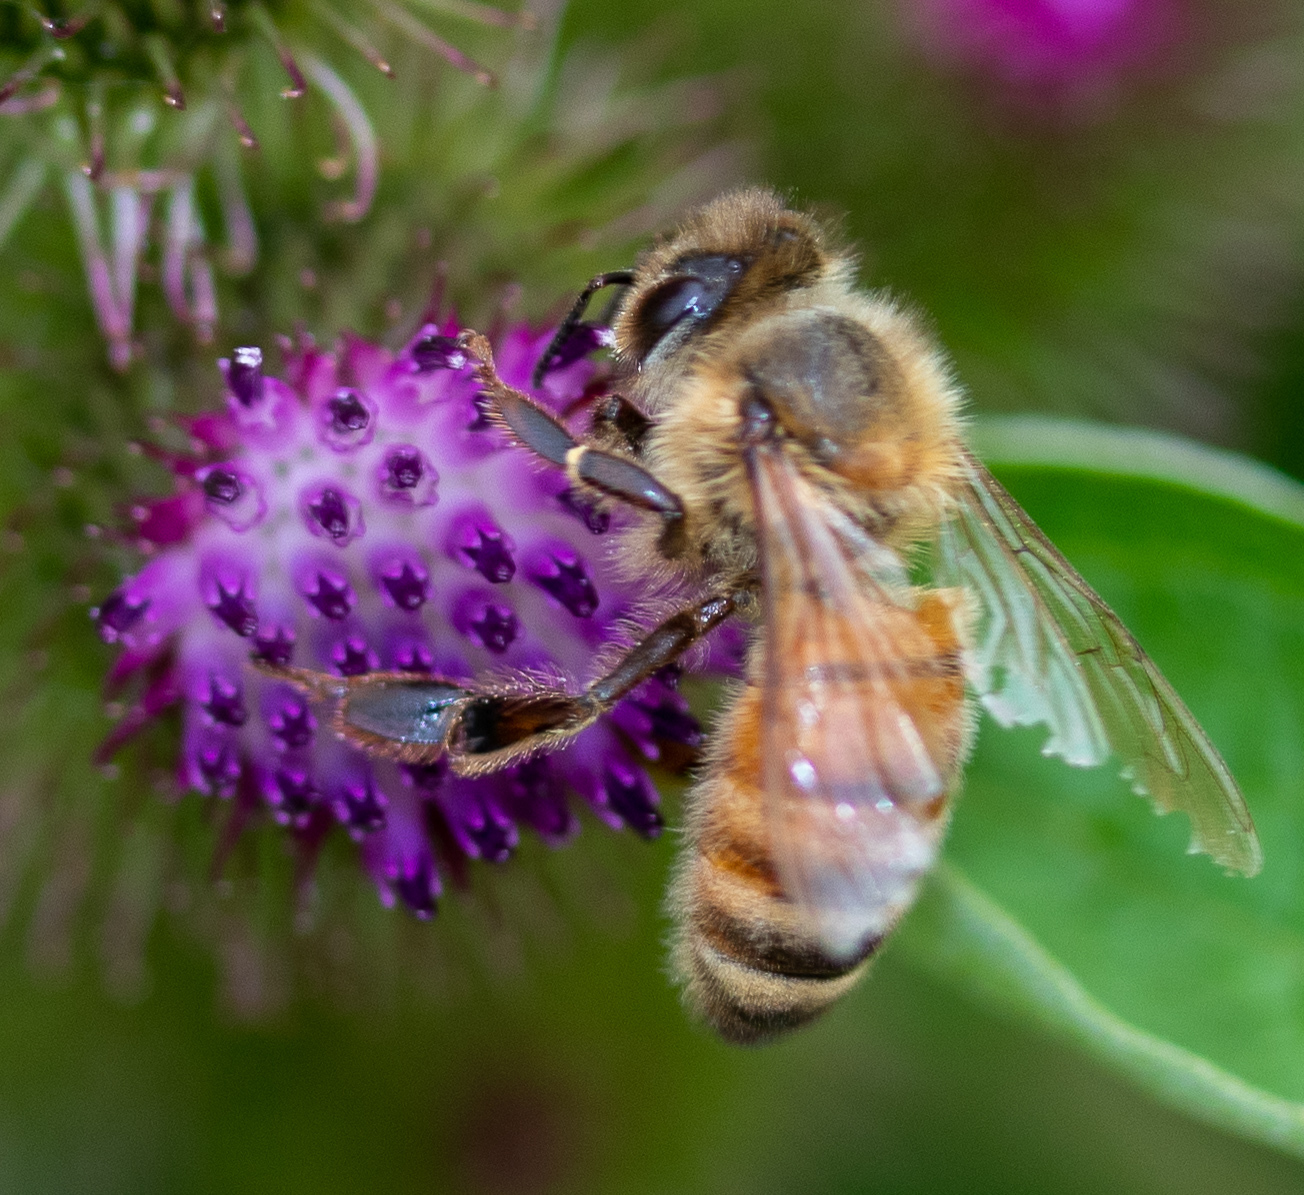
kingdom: Animalia
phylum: Arthropoda
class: Insecta
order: Hymenoptera
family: Apidae
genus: Apis
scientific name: Apis mellifera
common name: Honey bee
